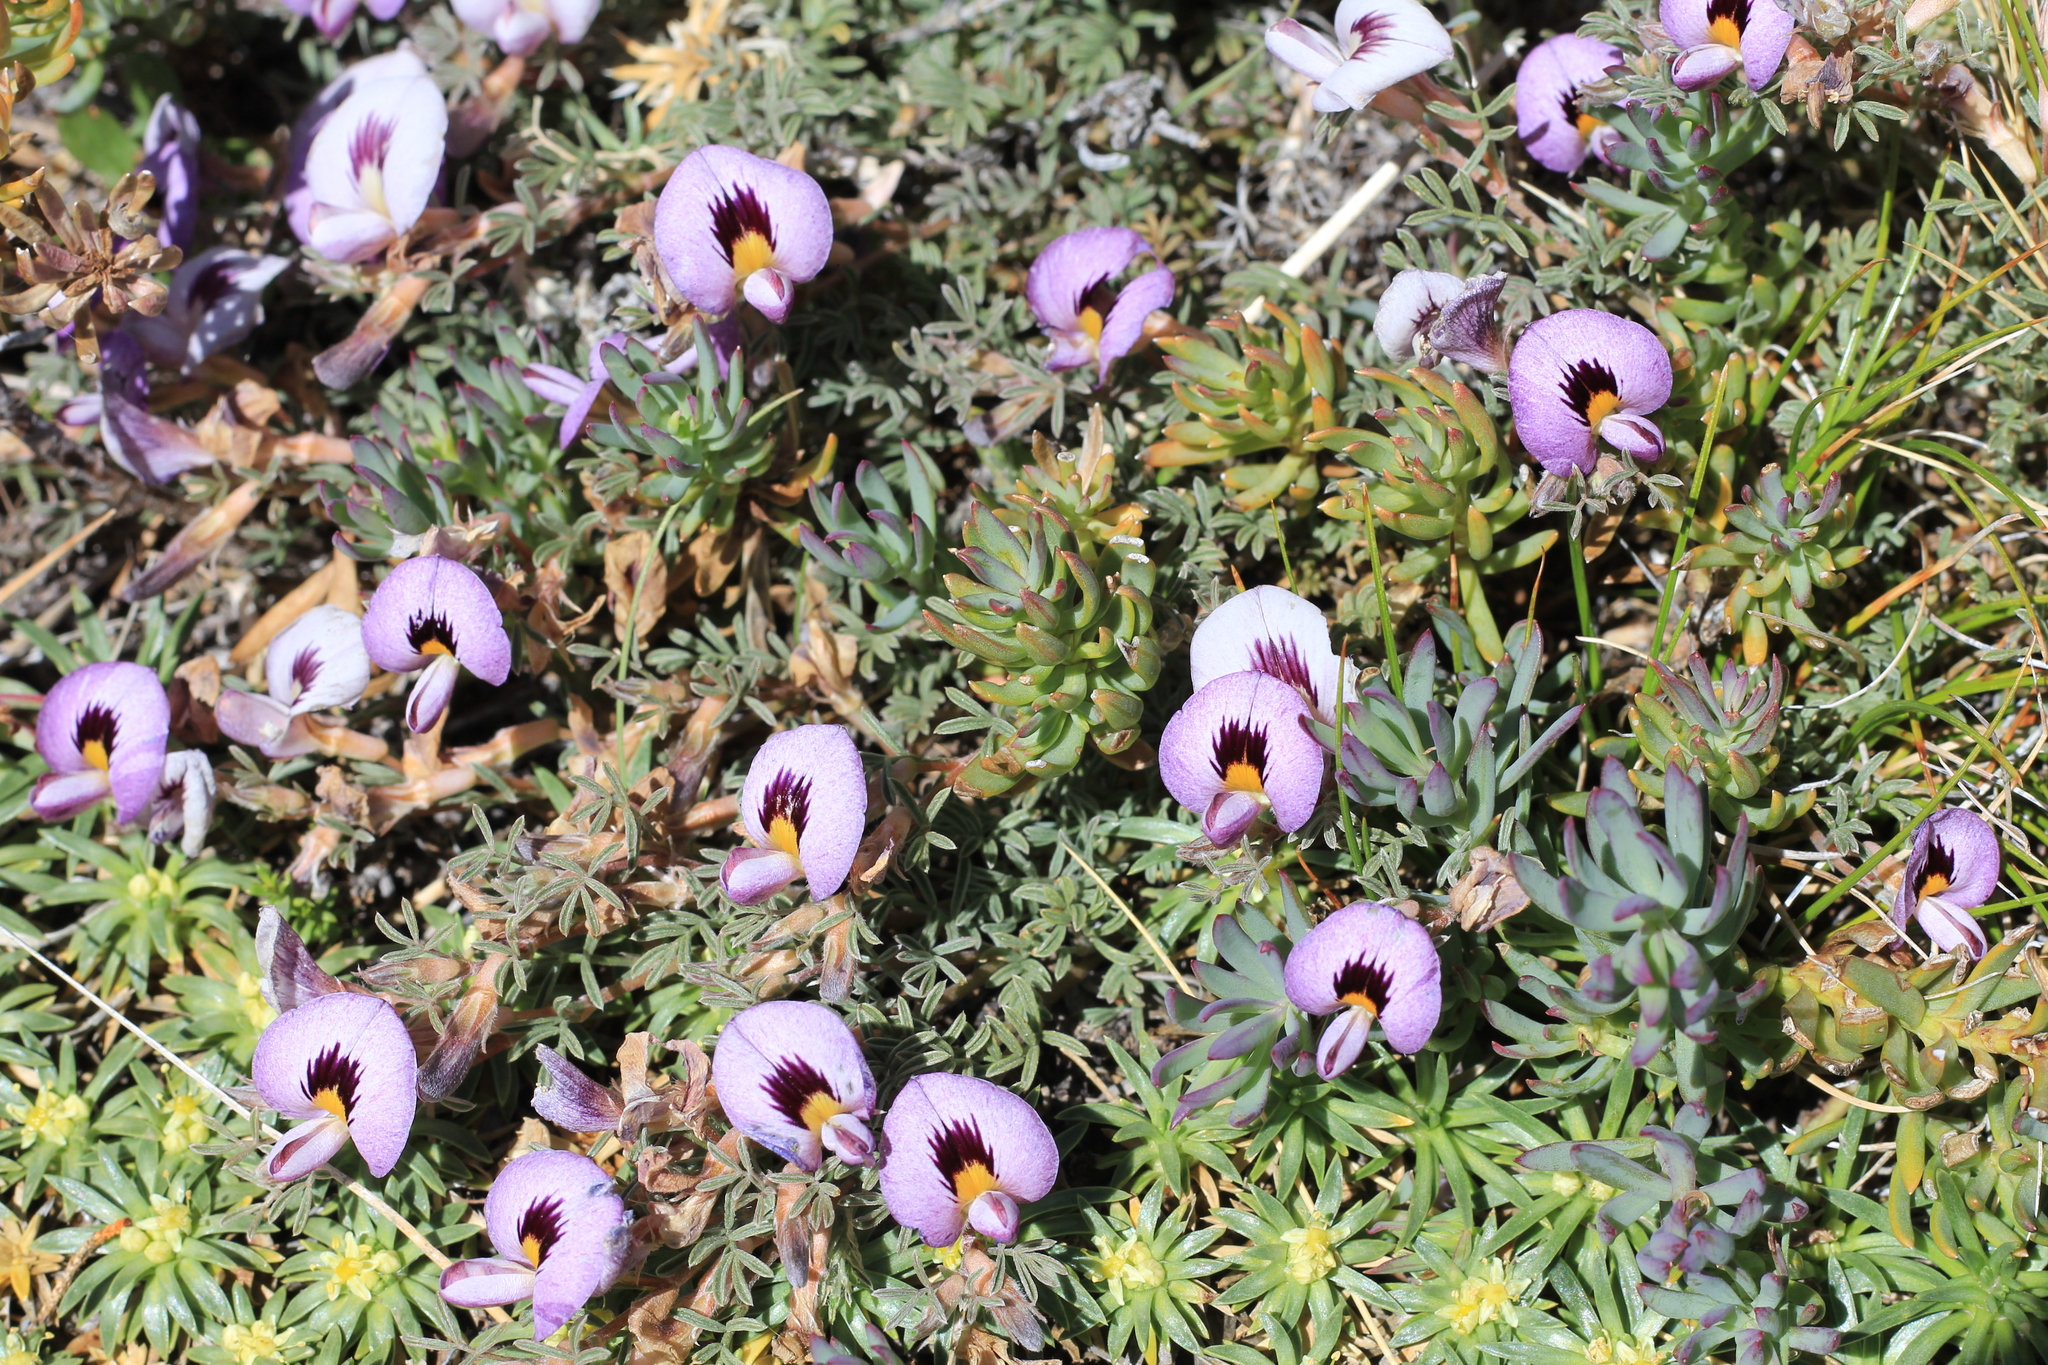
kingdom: Plantae
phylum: Tracheophyta
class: Magnoliopsida
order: Fabales
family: Fabaceae
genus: Adesmia
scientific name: Adesmia parvifolia
